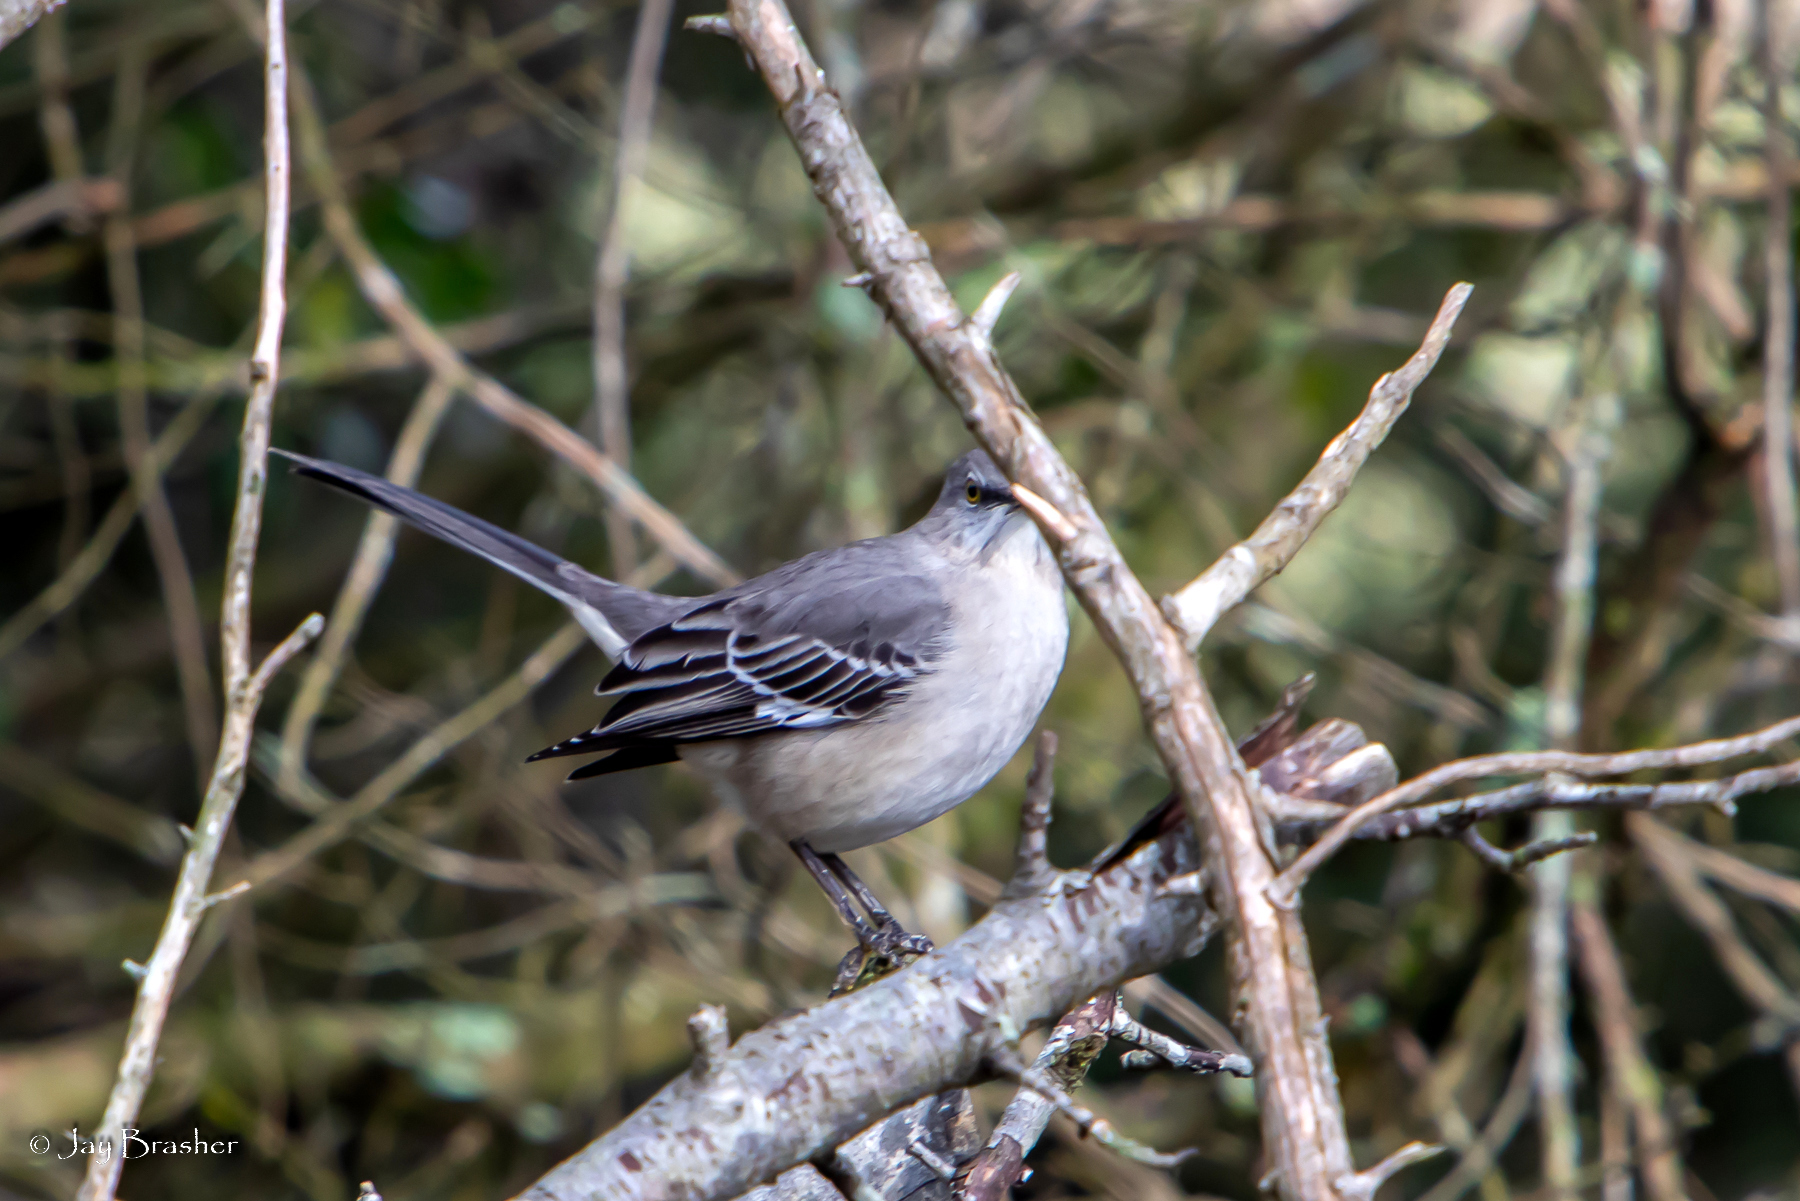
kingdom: Animalia
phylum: Chordata
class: Aves
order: Passeriformes
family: Mimidae
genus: Mimus
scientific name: Mimus polyglottos
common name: Northern mockingbird
